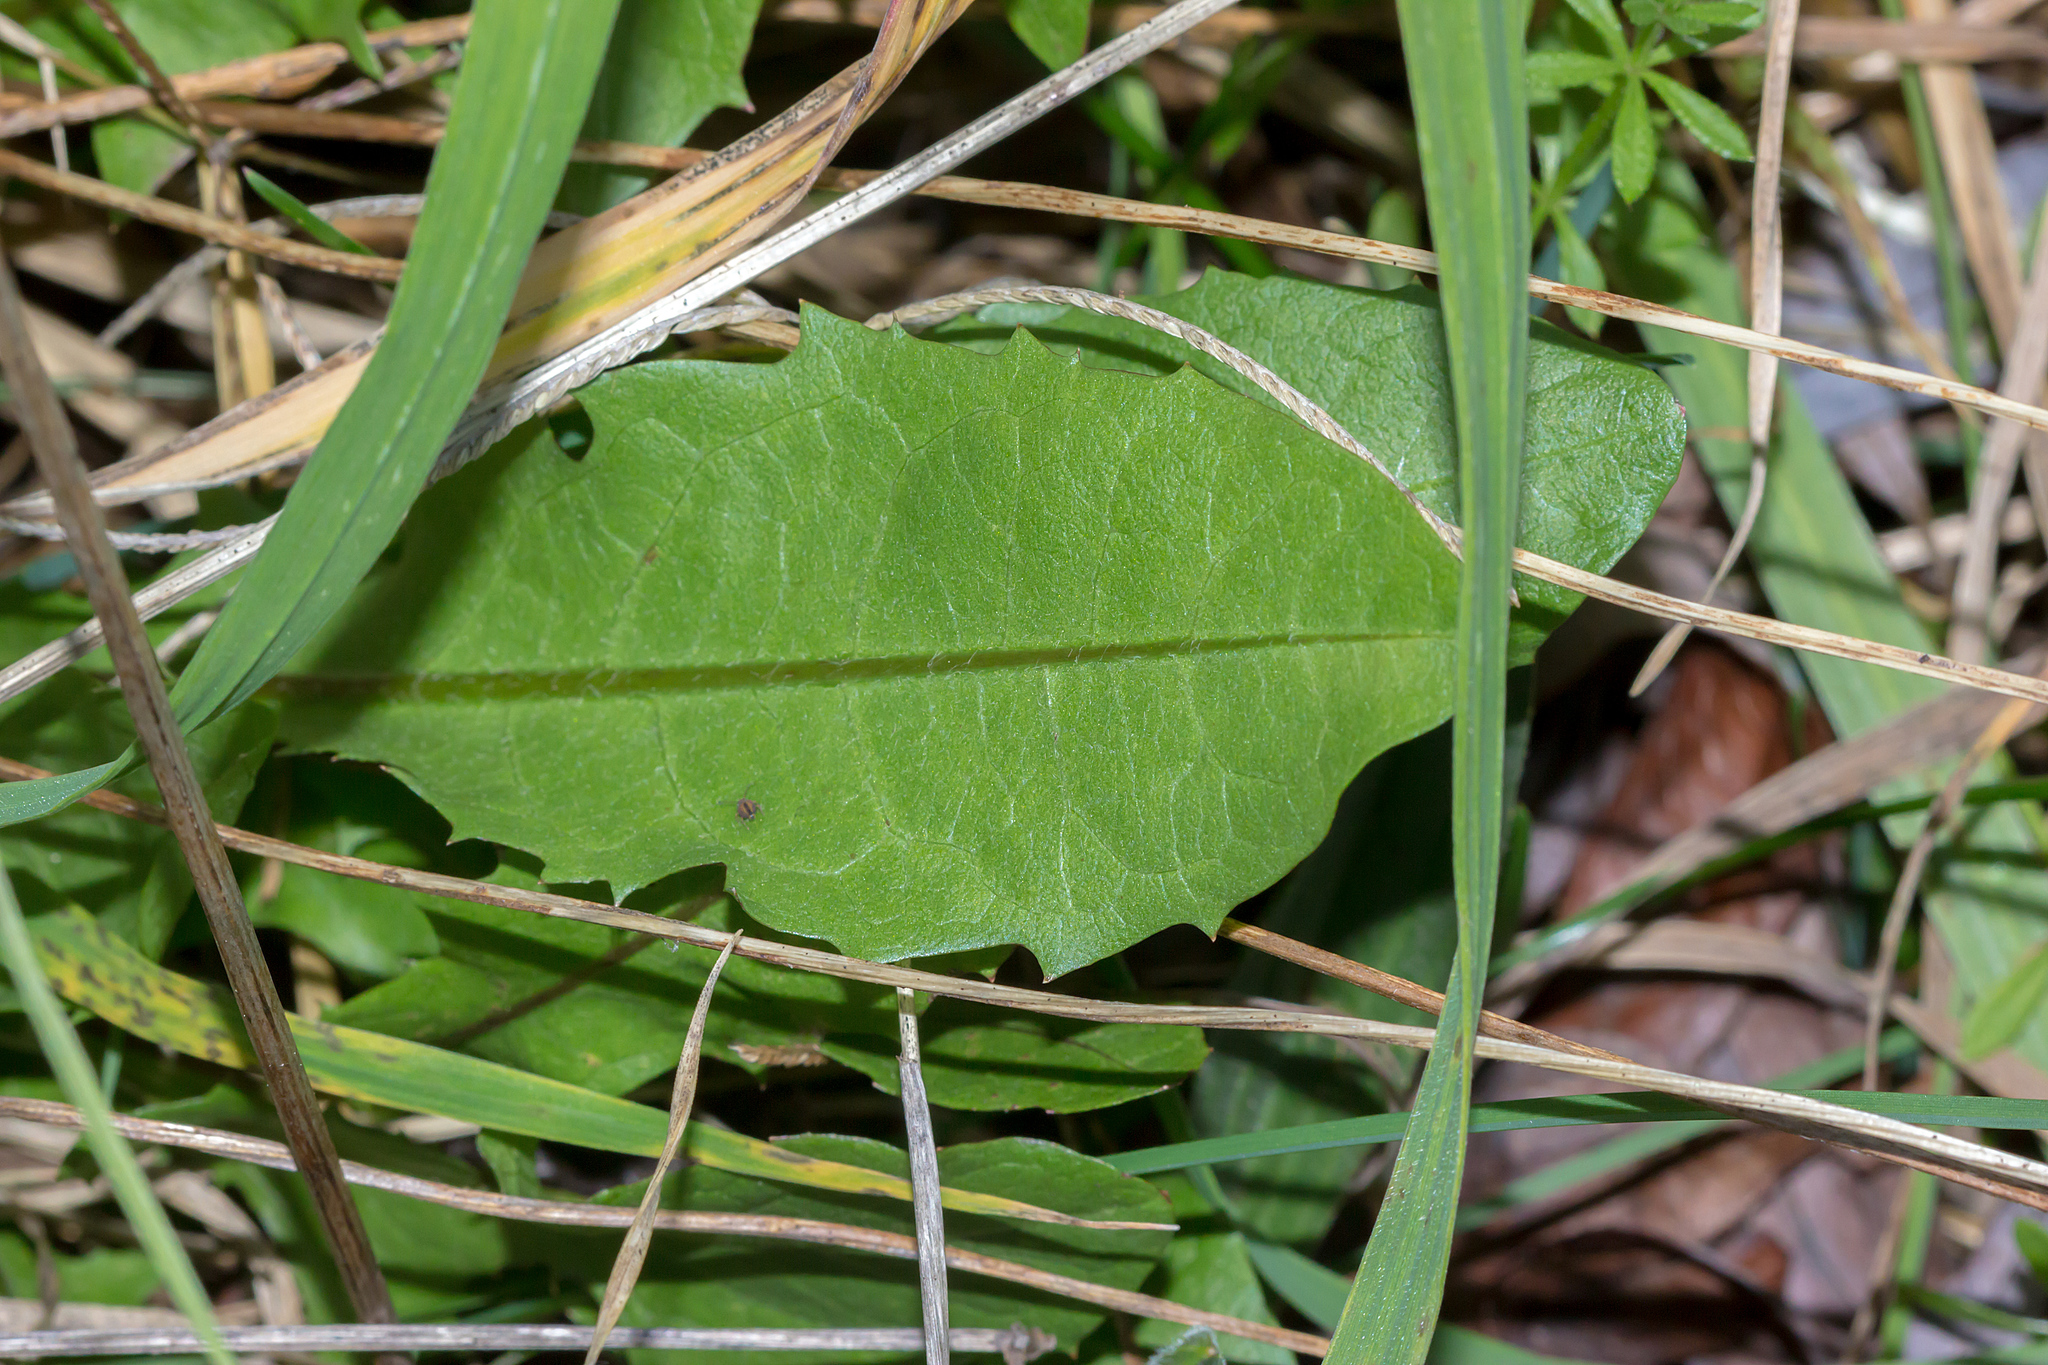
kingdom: Plantae
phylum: Tracheophyta
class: Magnoliopsida
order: Asterales
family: Asteraceae
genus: Taraxacum
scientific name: Taraxacum officinale
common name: Common dandelion
